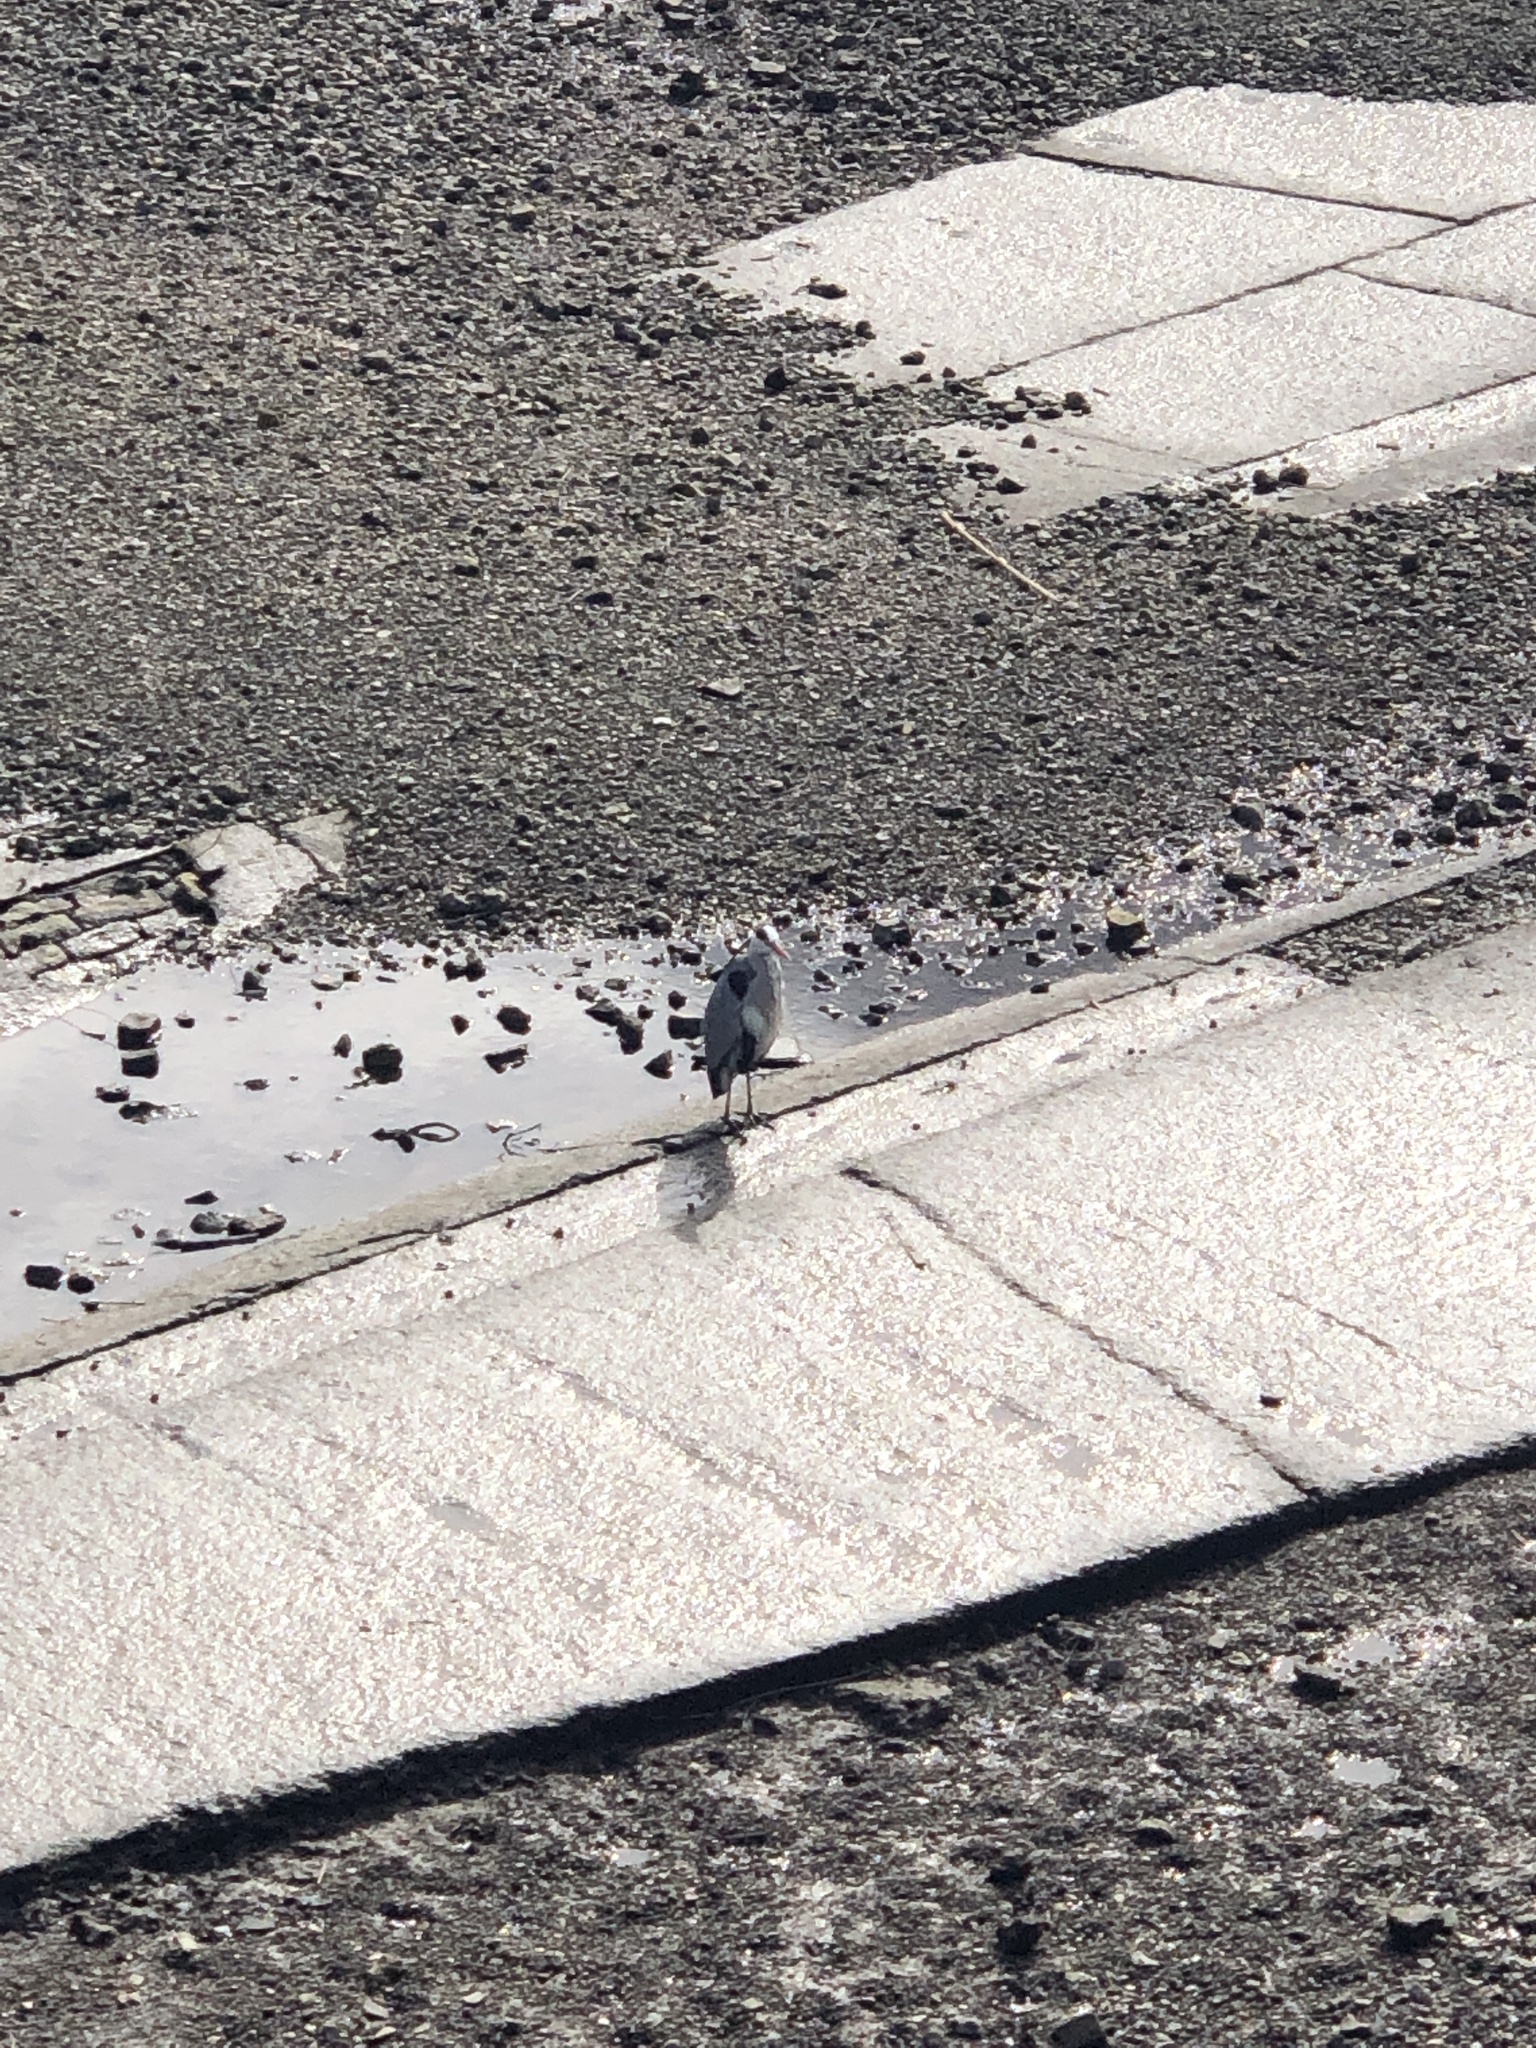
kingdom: Animalia
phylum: Chordata
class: Aves
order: Pelecaniformes
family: Ardeidae
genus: Ardea
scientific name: Ardea cinerea
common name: Grey heron
